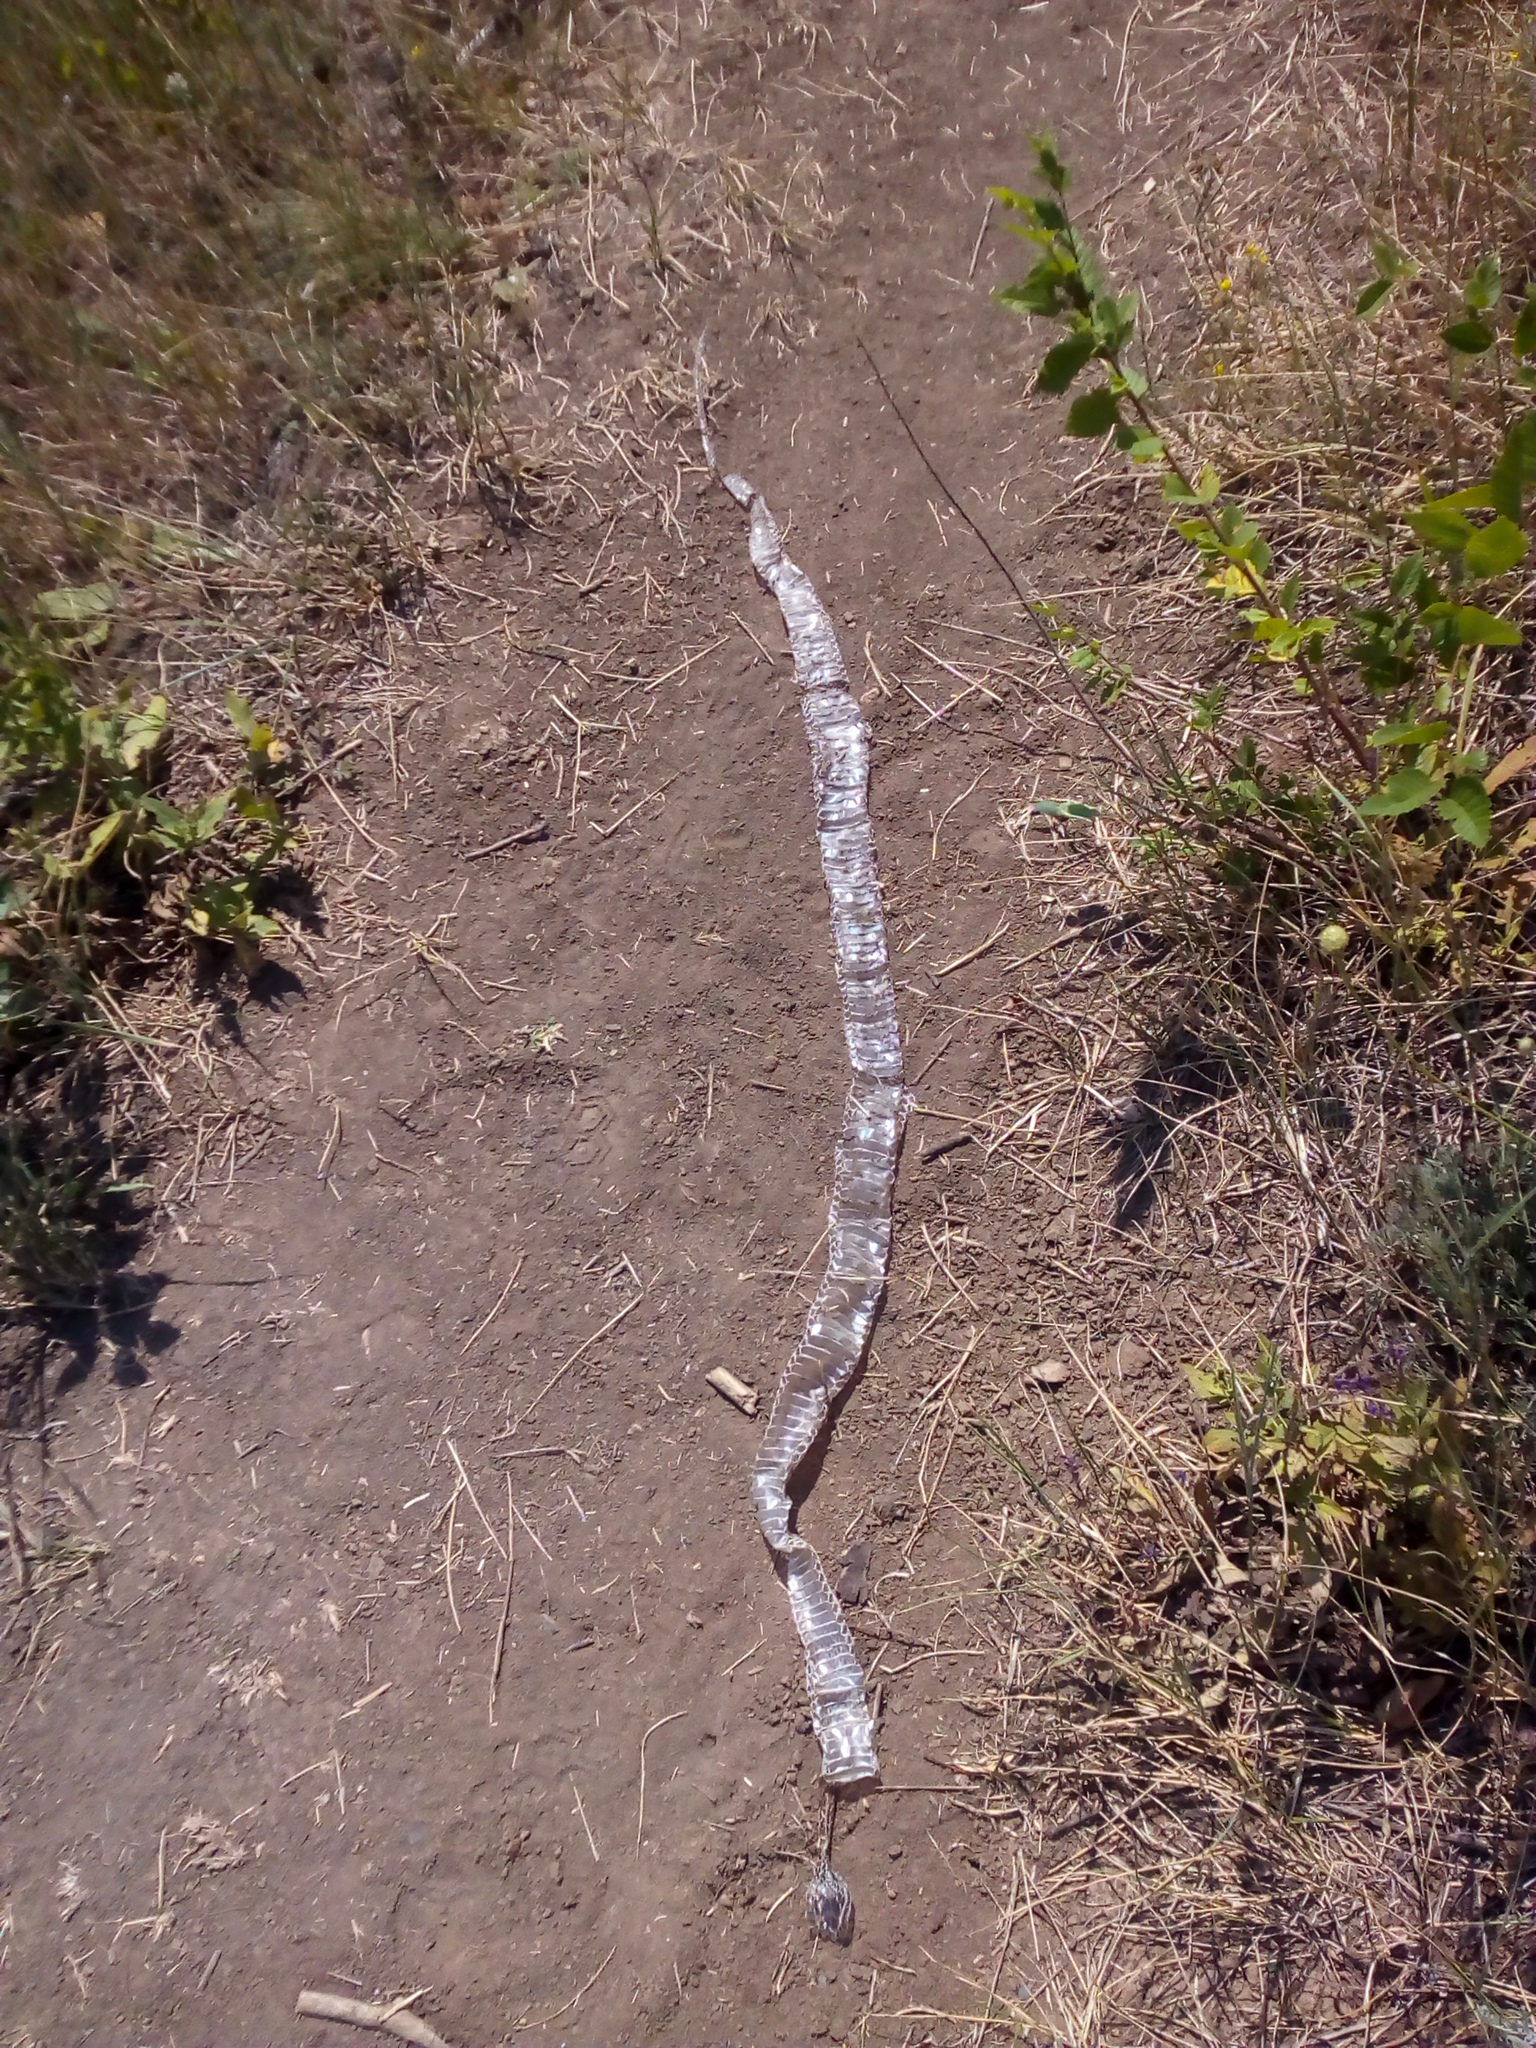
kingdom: Animalia
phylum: Chordata
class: Squamata
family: Colubridae
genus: Natrix
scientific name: Natrix natrix
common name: Grass snake
